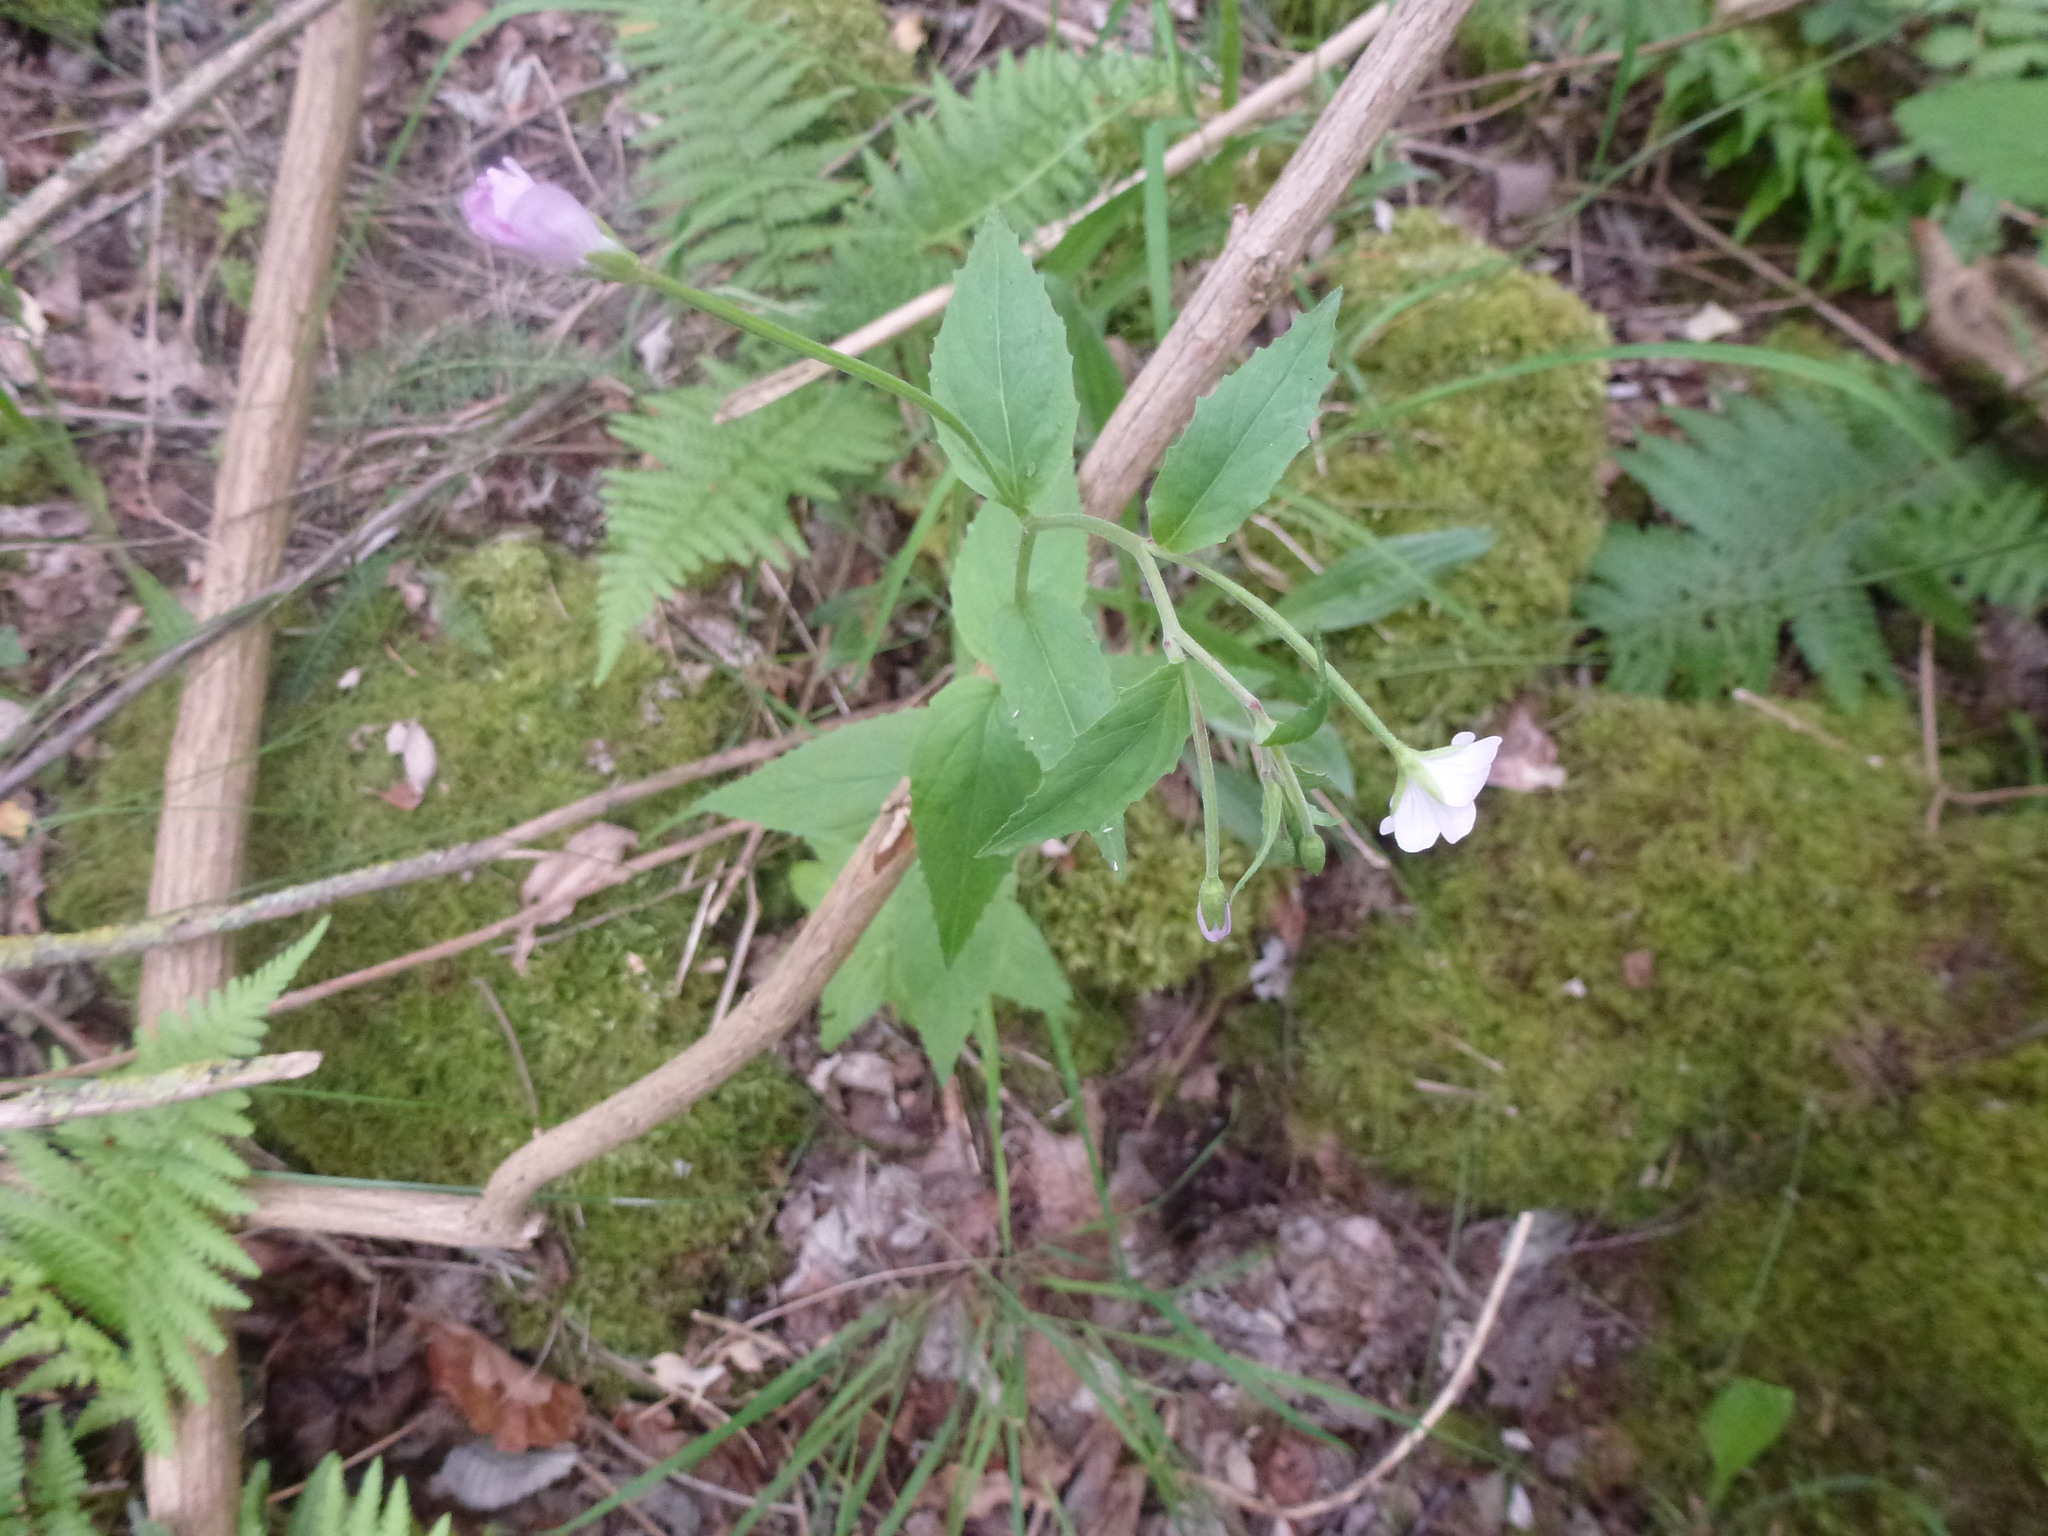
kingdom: Plantae
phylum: Tracheophyta
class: Magnoliopsida
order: Myrtales
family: Onagraceae
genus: Epilobium
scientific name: Epilobium montanum
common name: Broad-leaved willowherb
